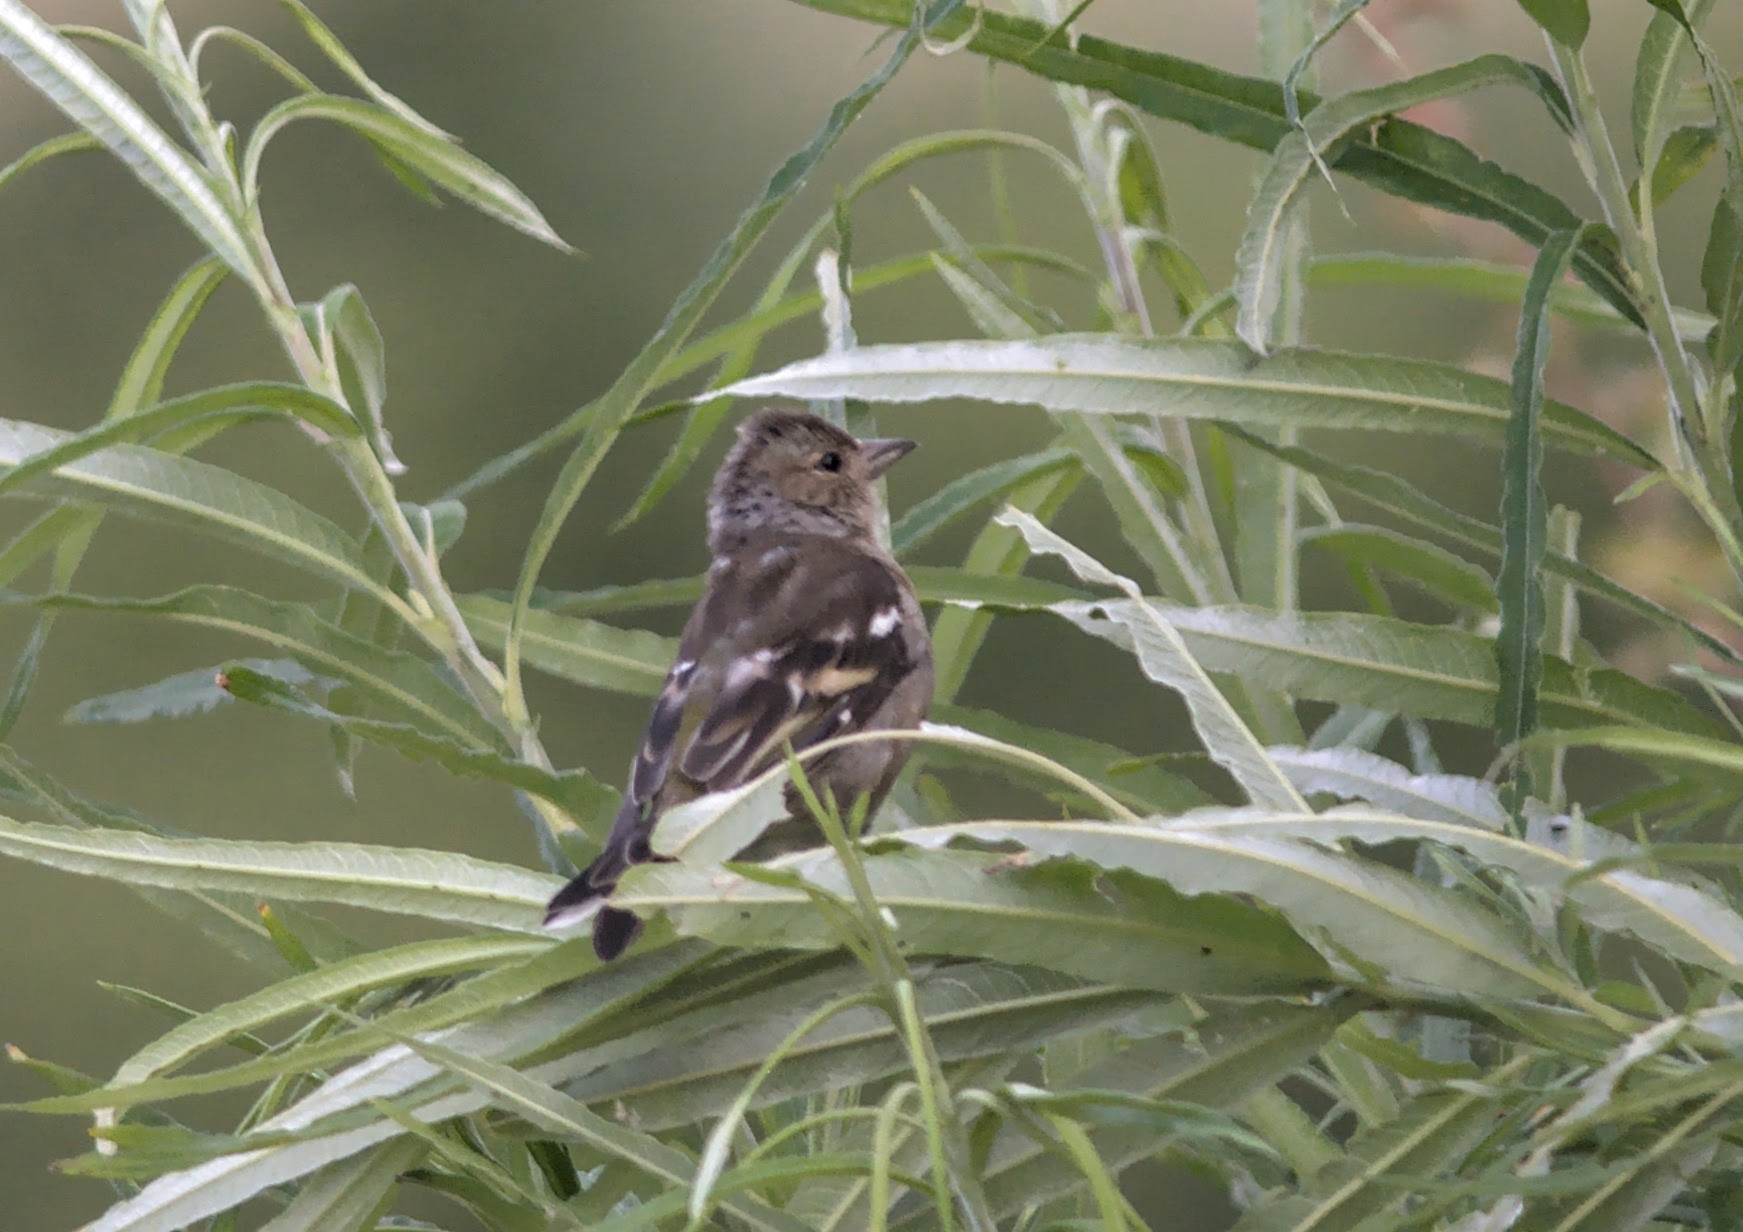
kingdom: Animalia
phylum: Chordata
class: Aves
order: Passeriformes
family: Fringillidae
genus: Fringilla
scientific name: Fringilla coelebs
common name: Common chaffinch
